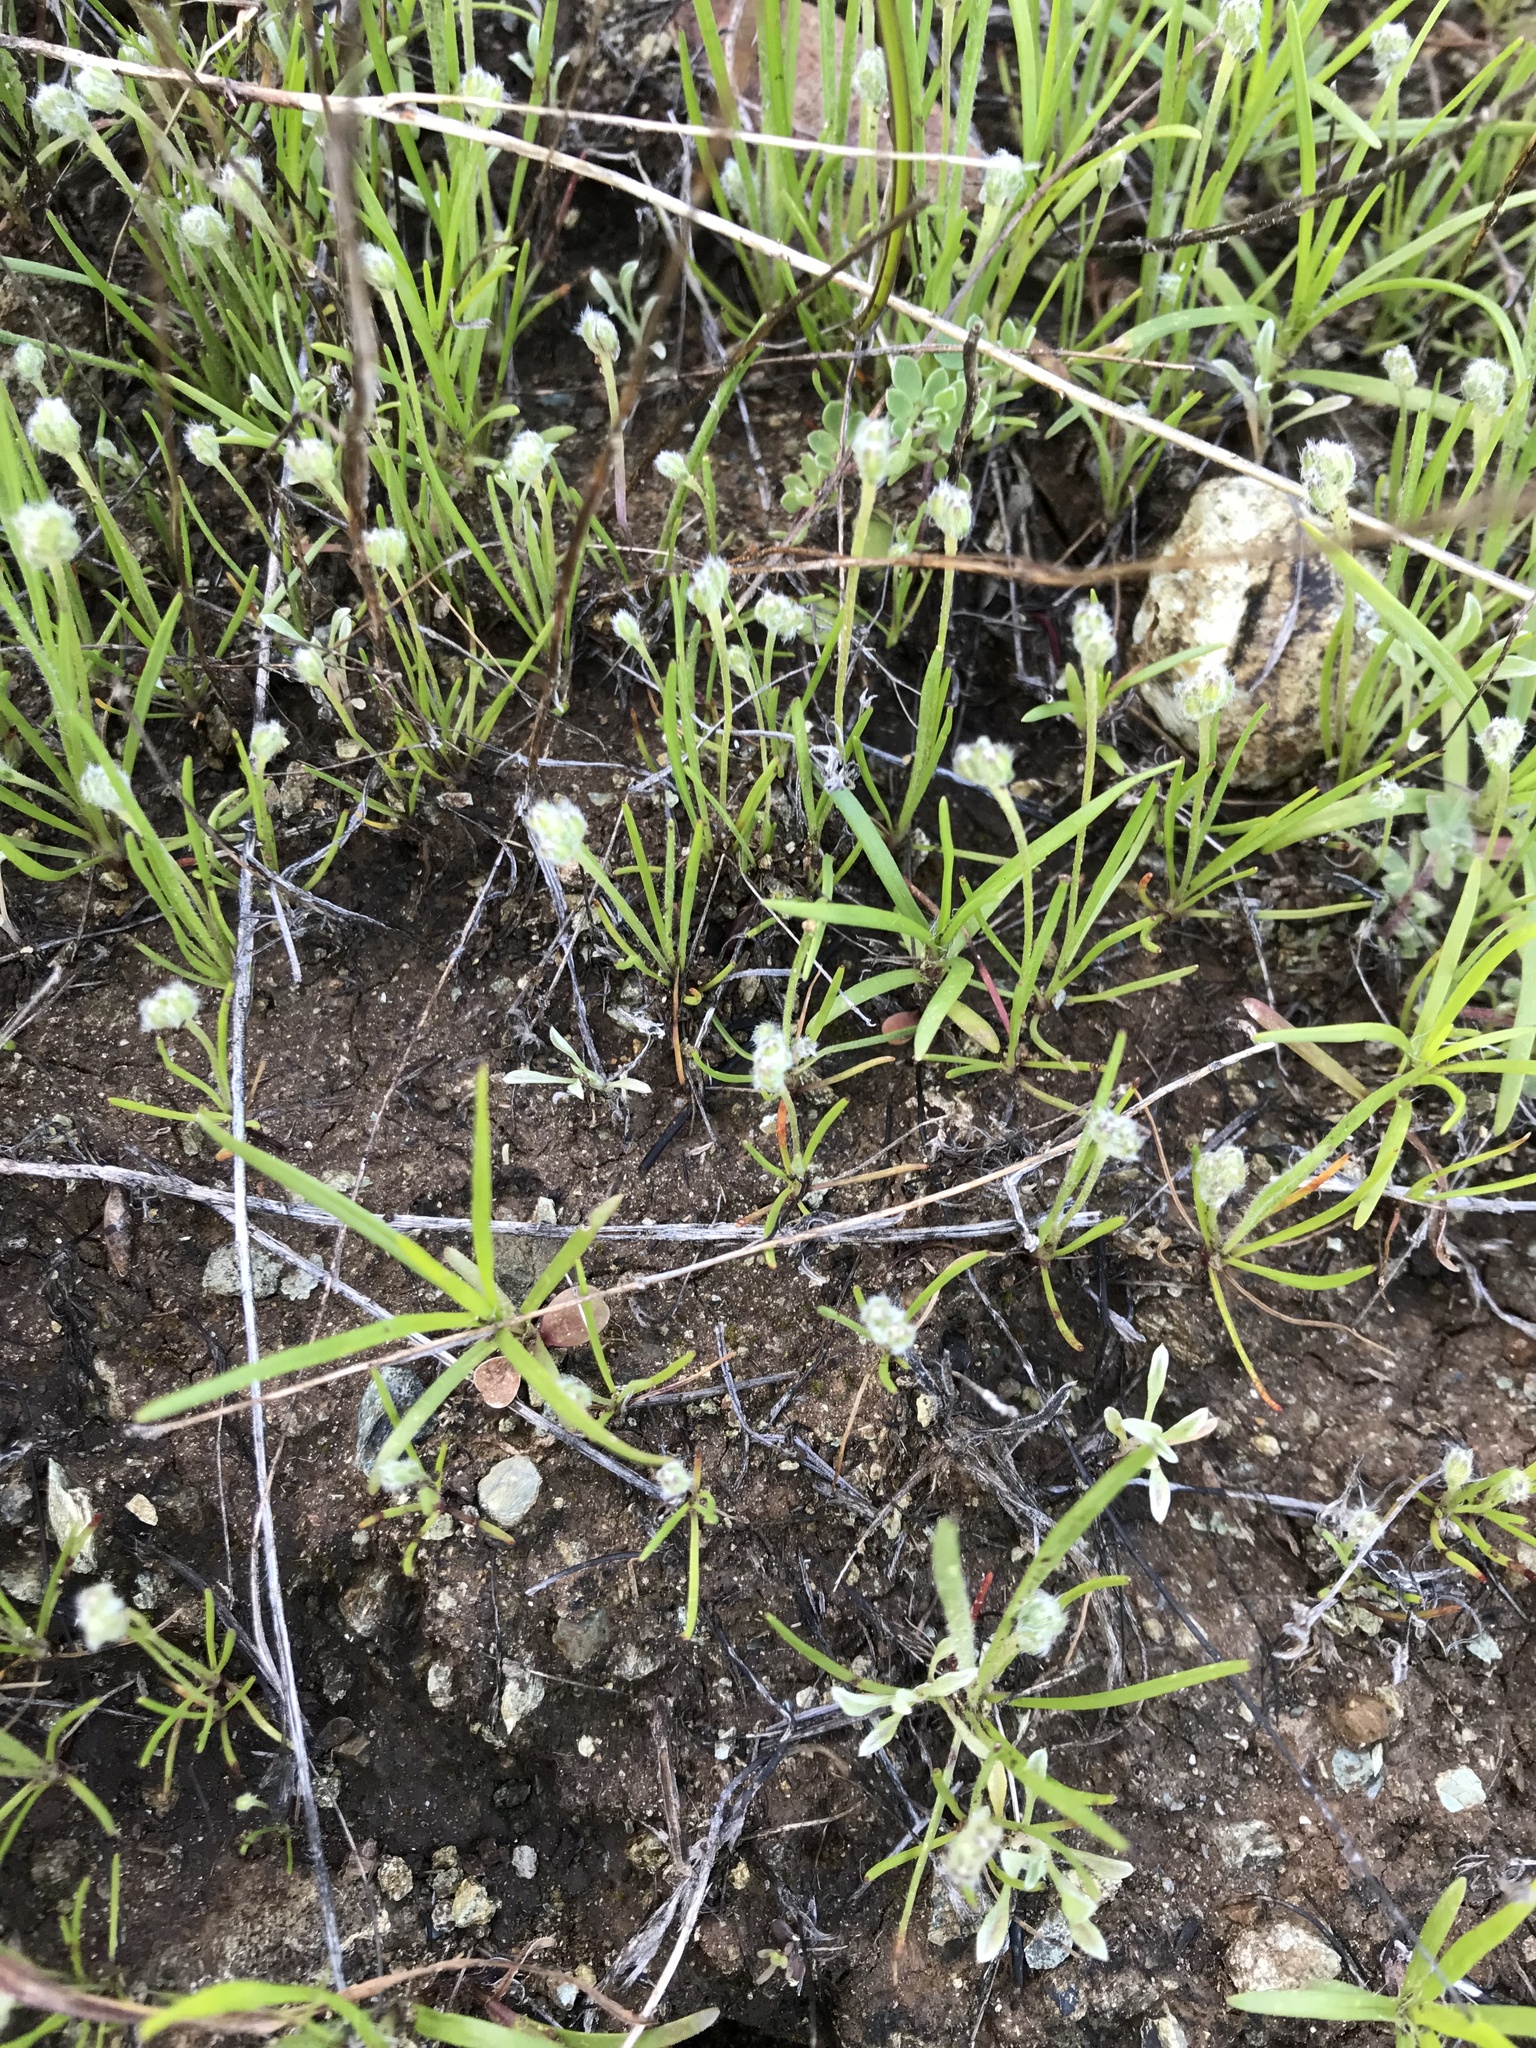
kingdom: Plantae
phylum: Tracheophyta
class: Magnoliopsida
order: Lamiales
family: Plantaginaceae
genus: Plantago
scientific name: Plantago erecta
